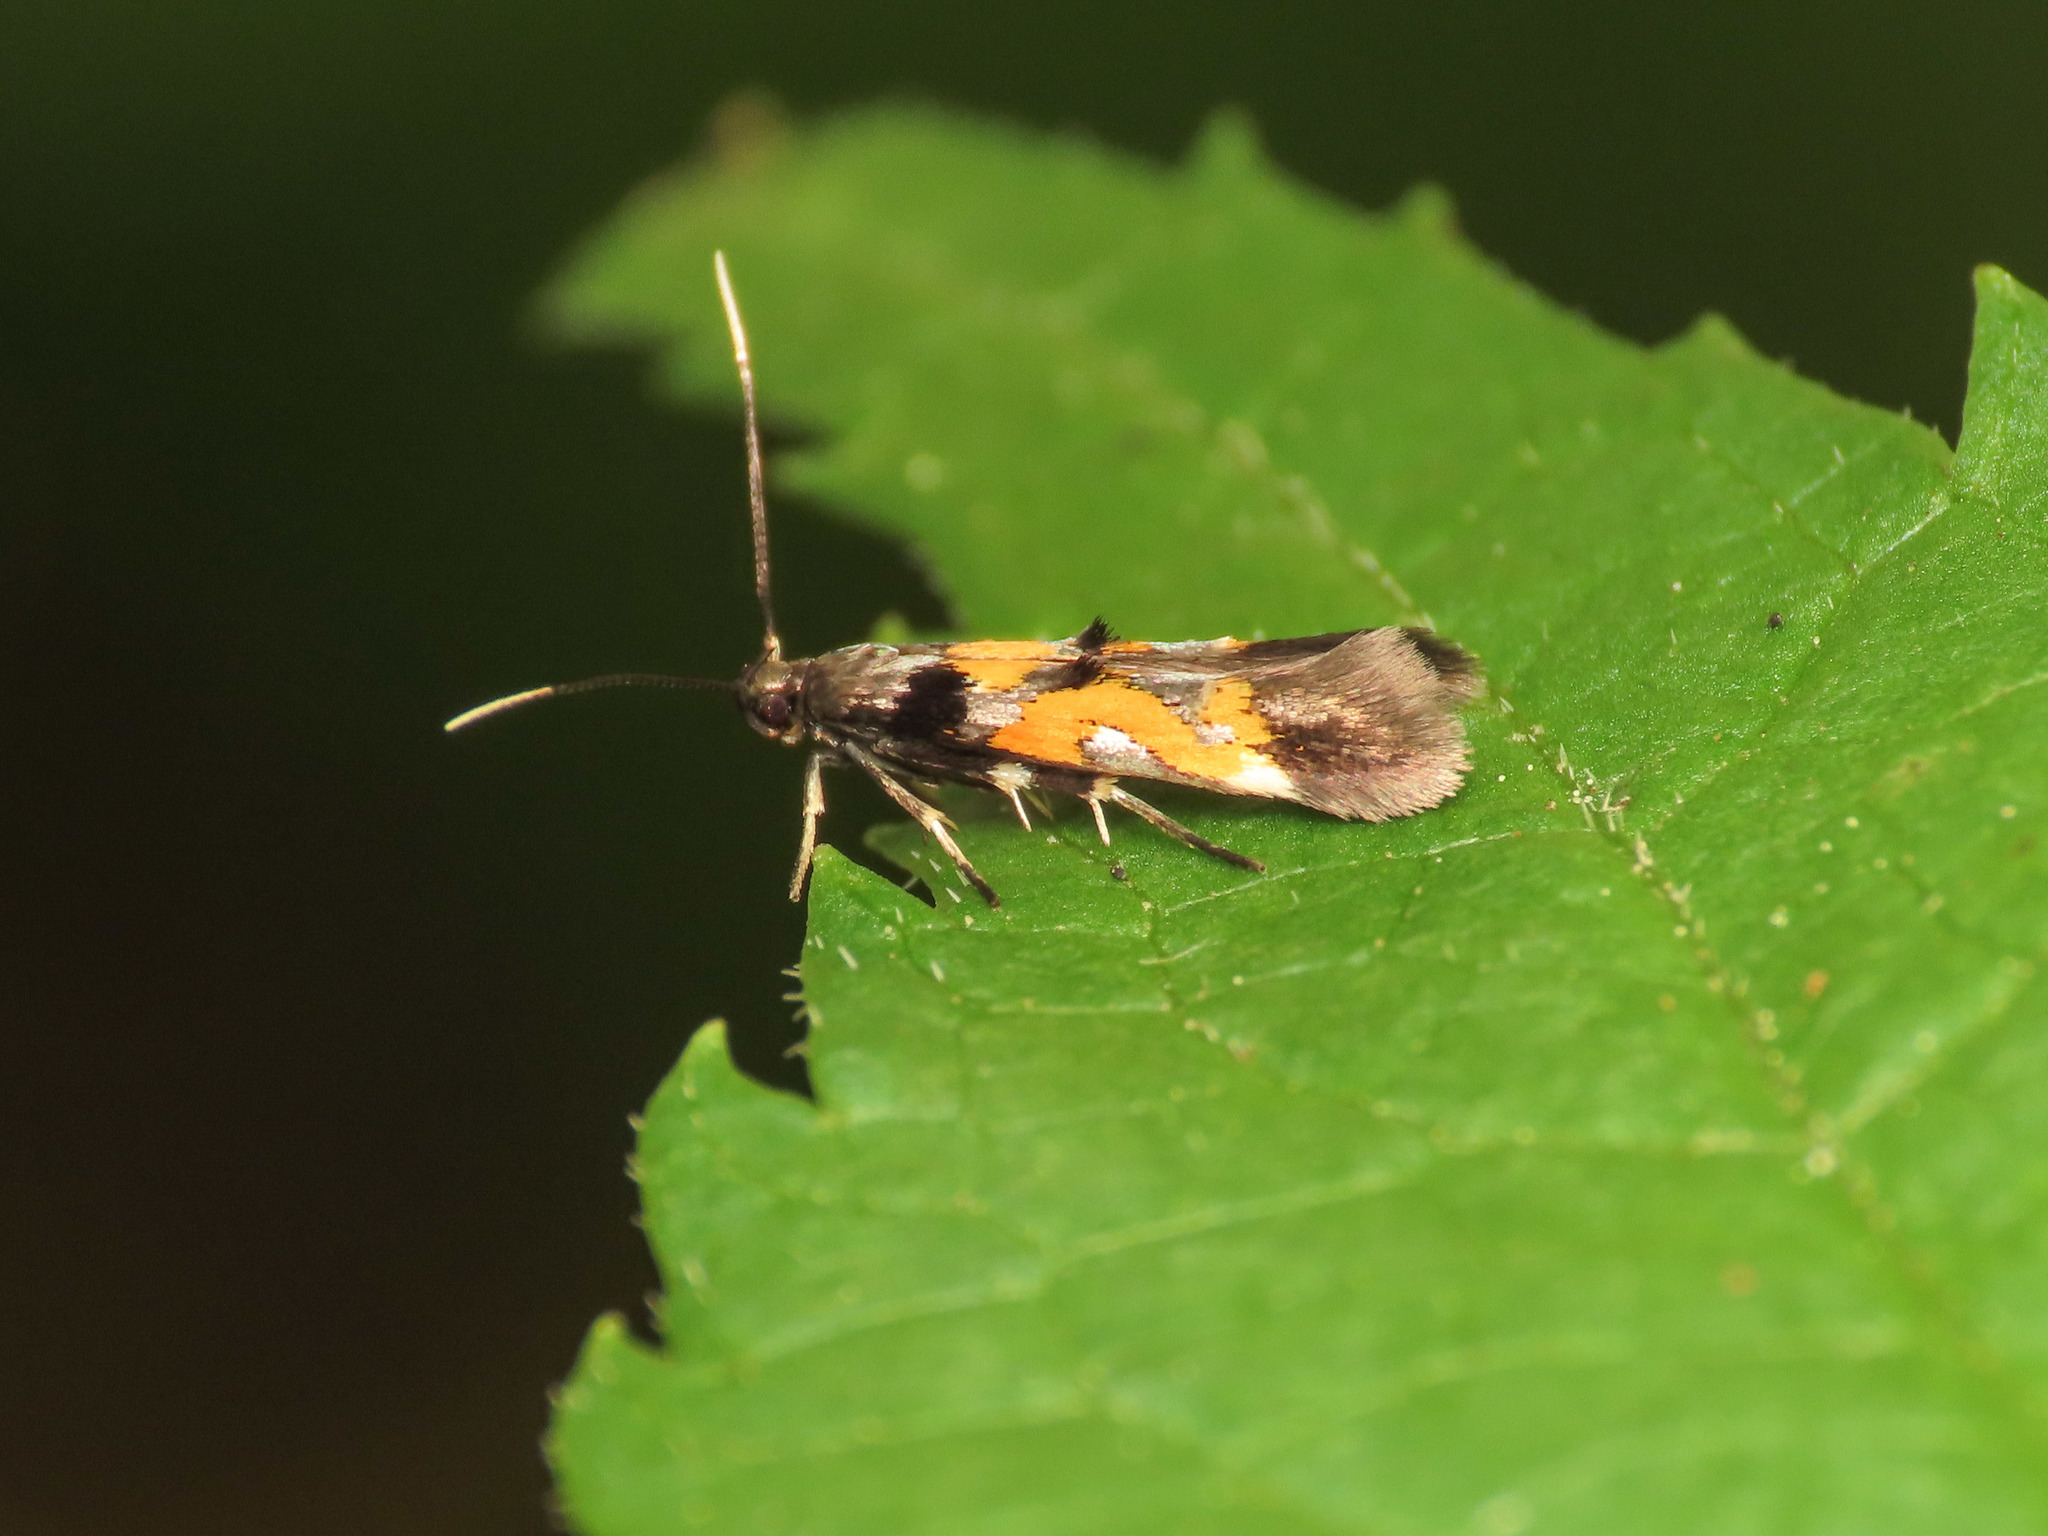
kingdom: Animalia
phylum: Arthropoda
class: Insecta
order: Lepidoptera
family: Momphidae
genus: Mompha
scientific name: Mompha locupletella
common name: Red cosmet
